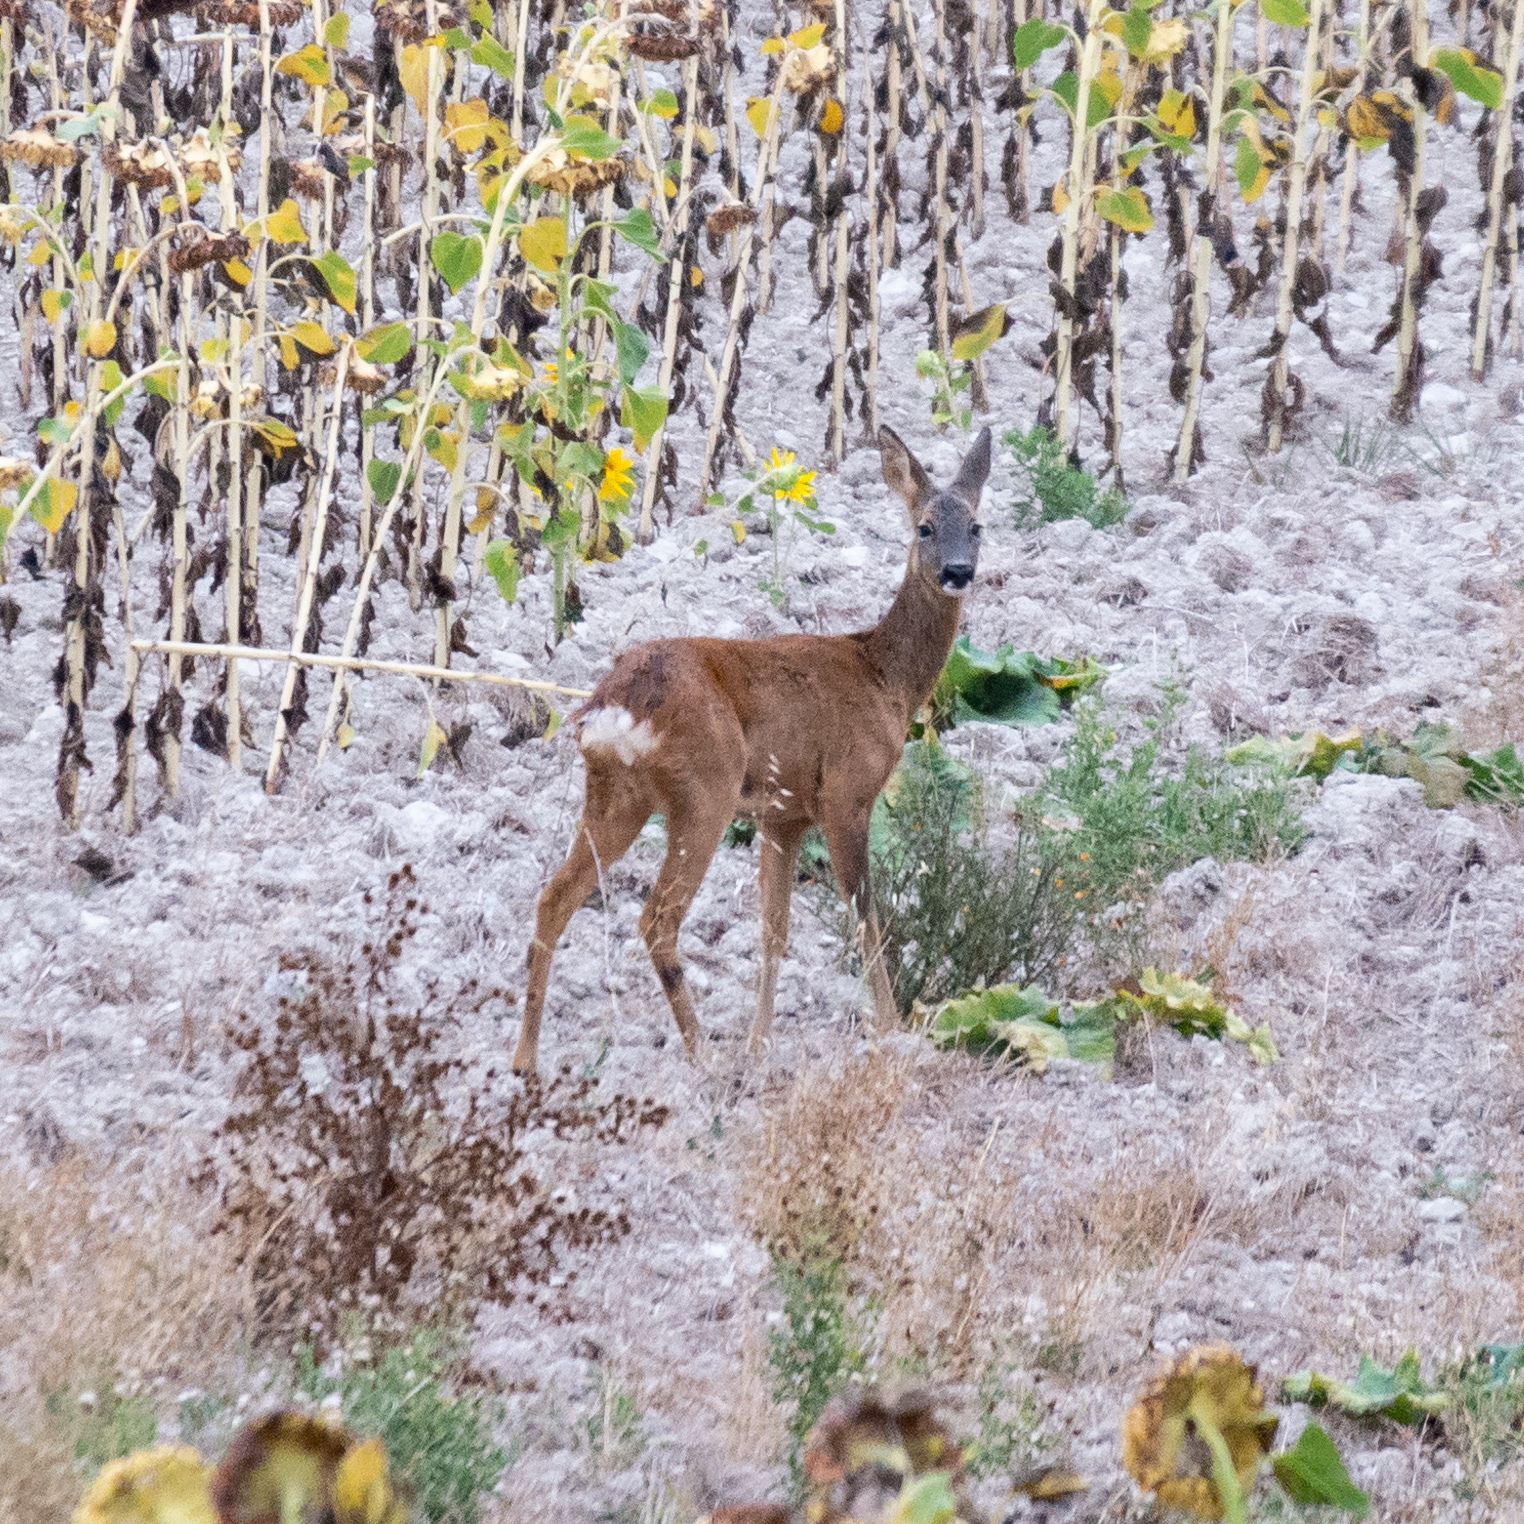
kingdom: Animalia
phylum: Chordata
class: Mammalia
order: Artiodactyla
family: Cervidae
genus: Capreolus
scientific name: Capreolus capreolus
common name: Western roe deer
